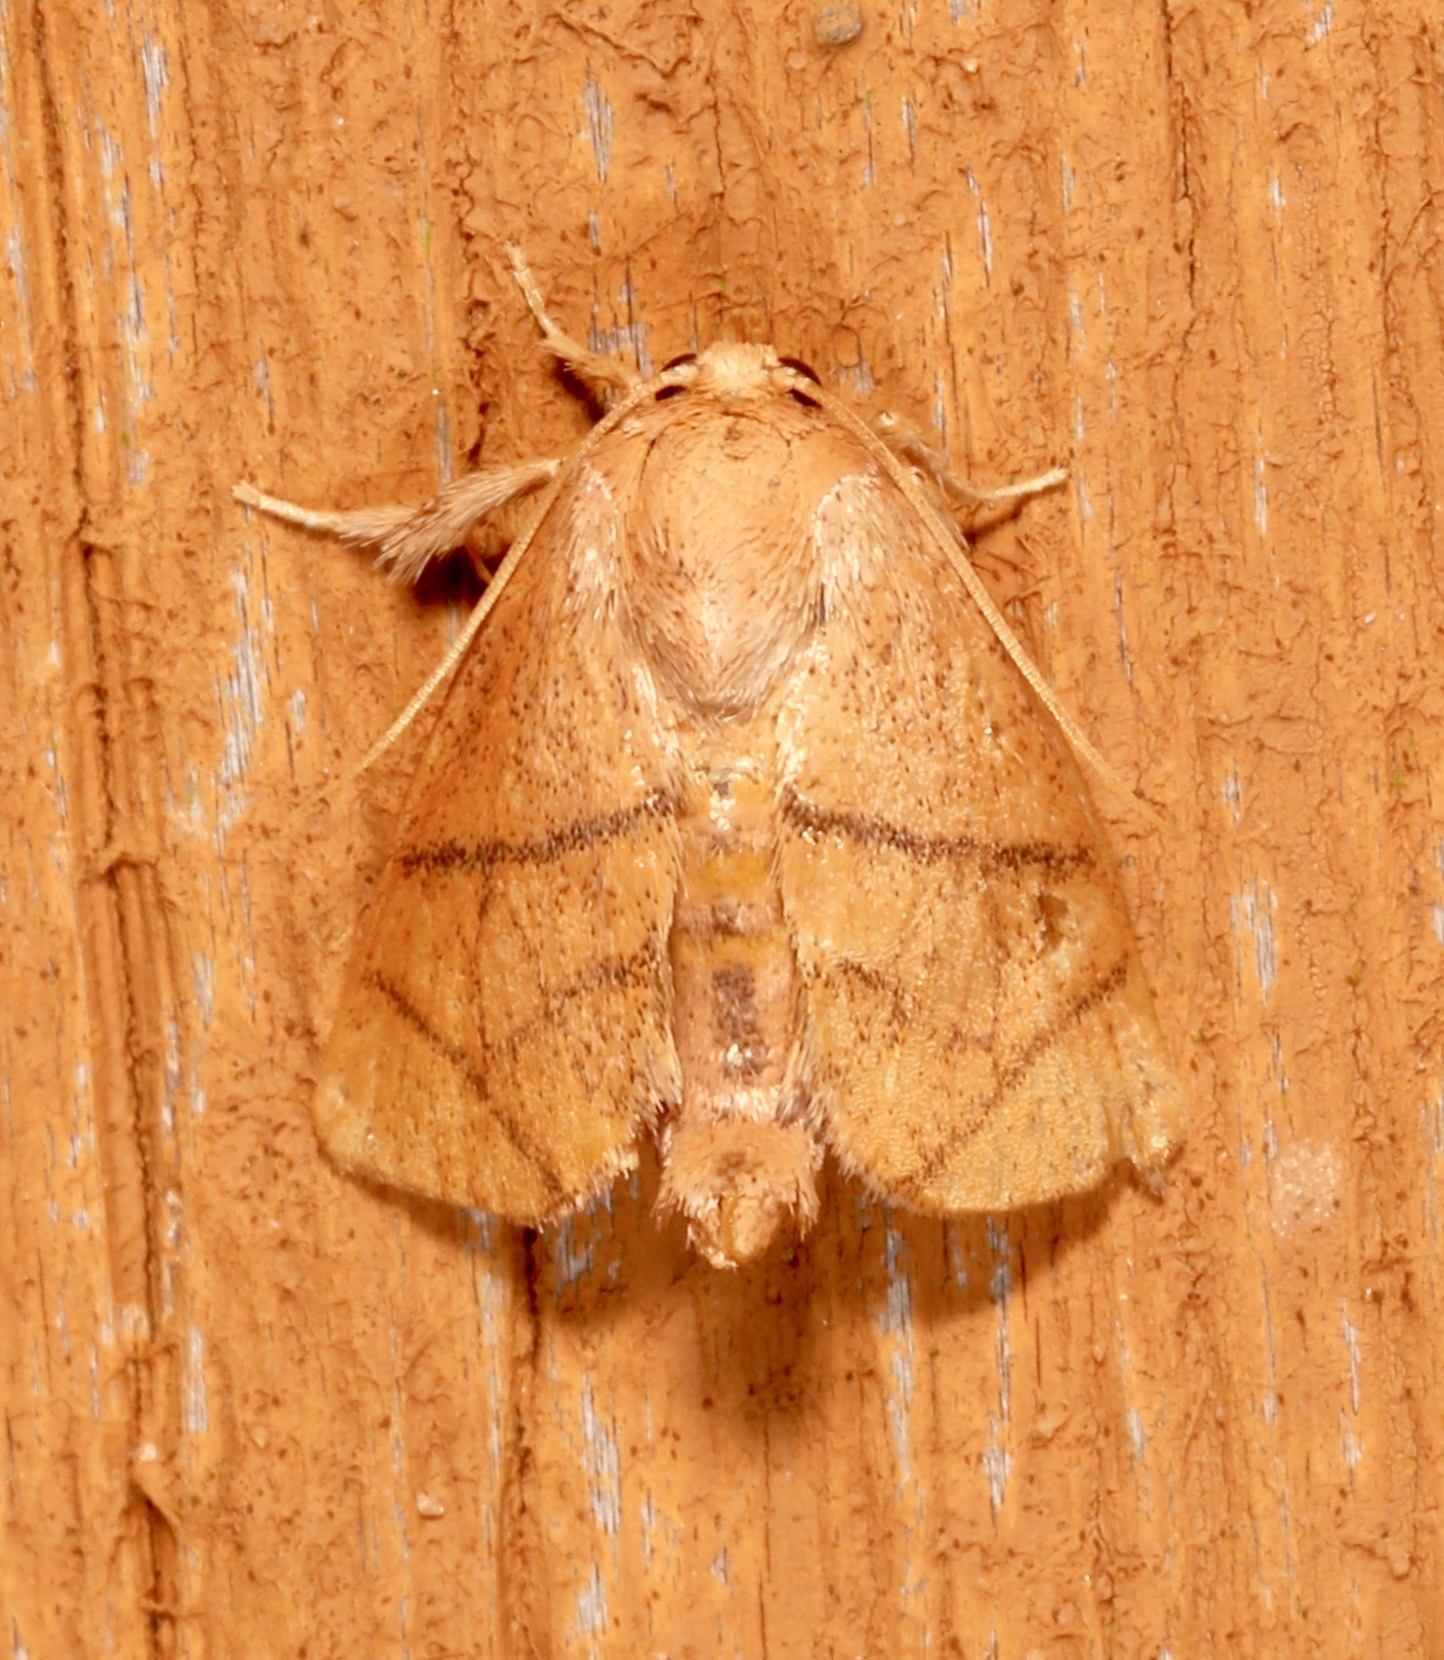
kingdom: Animalia
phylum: Arthropoda
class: Insecta
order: Lepidoptera
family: Limacodidae
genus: Apoda
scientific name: Apoda y-inversa
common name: Yellow-collared slug moth
